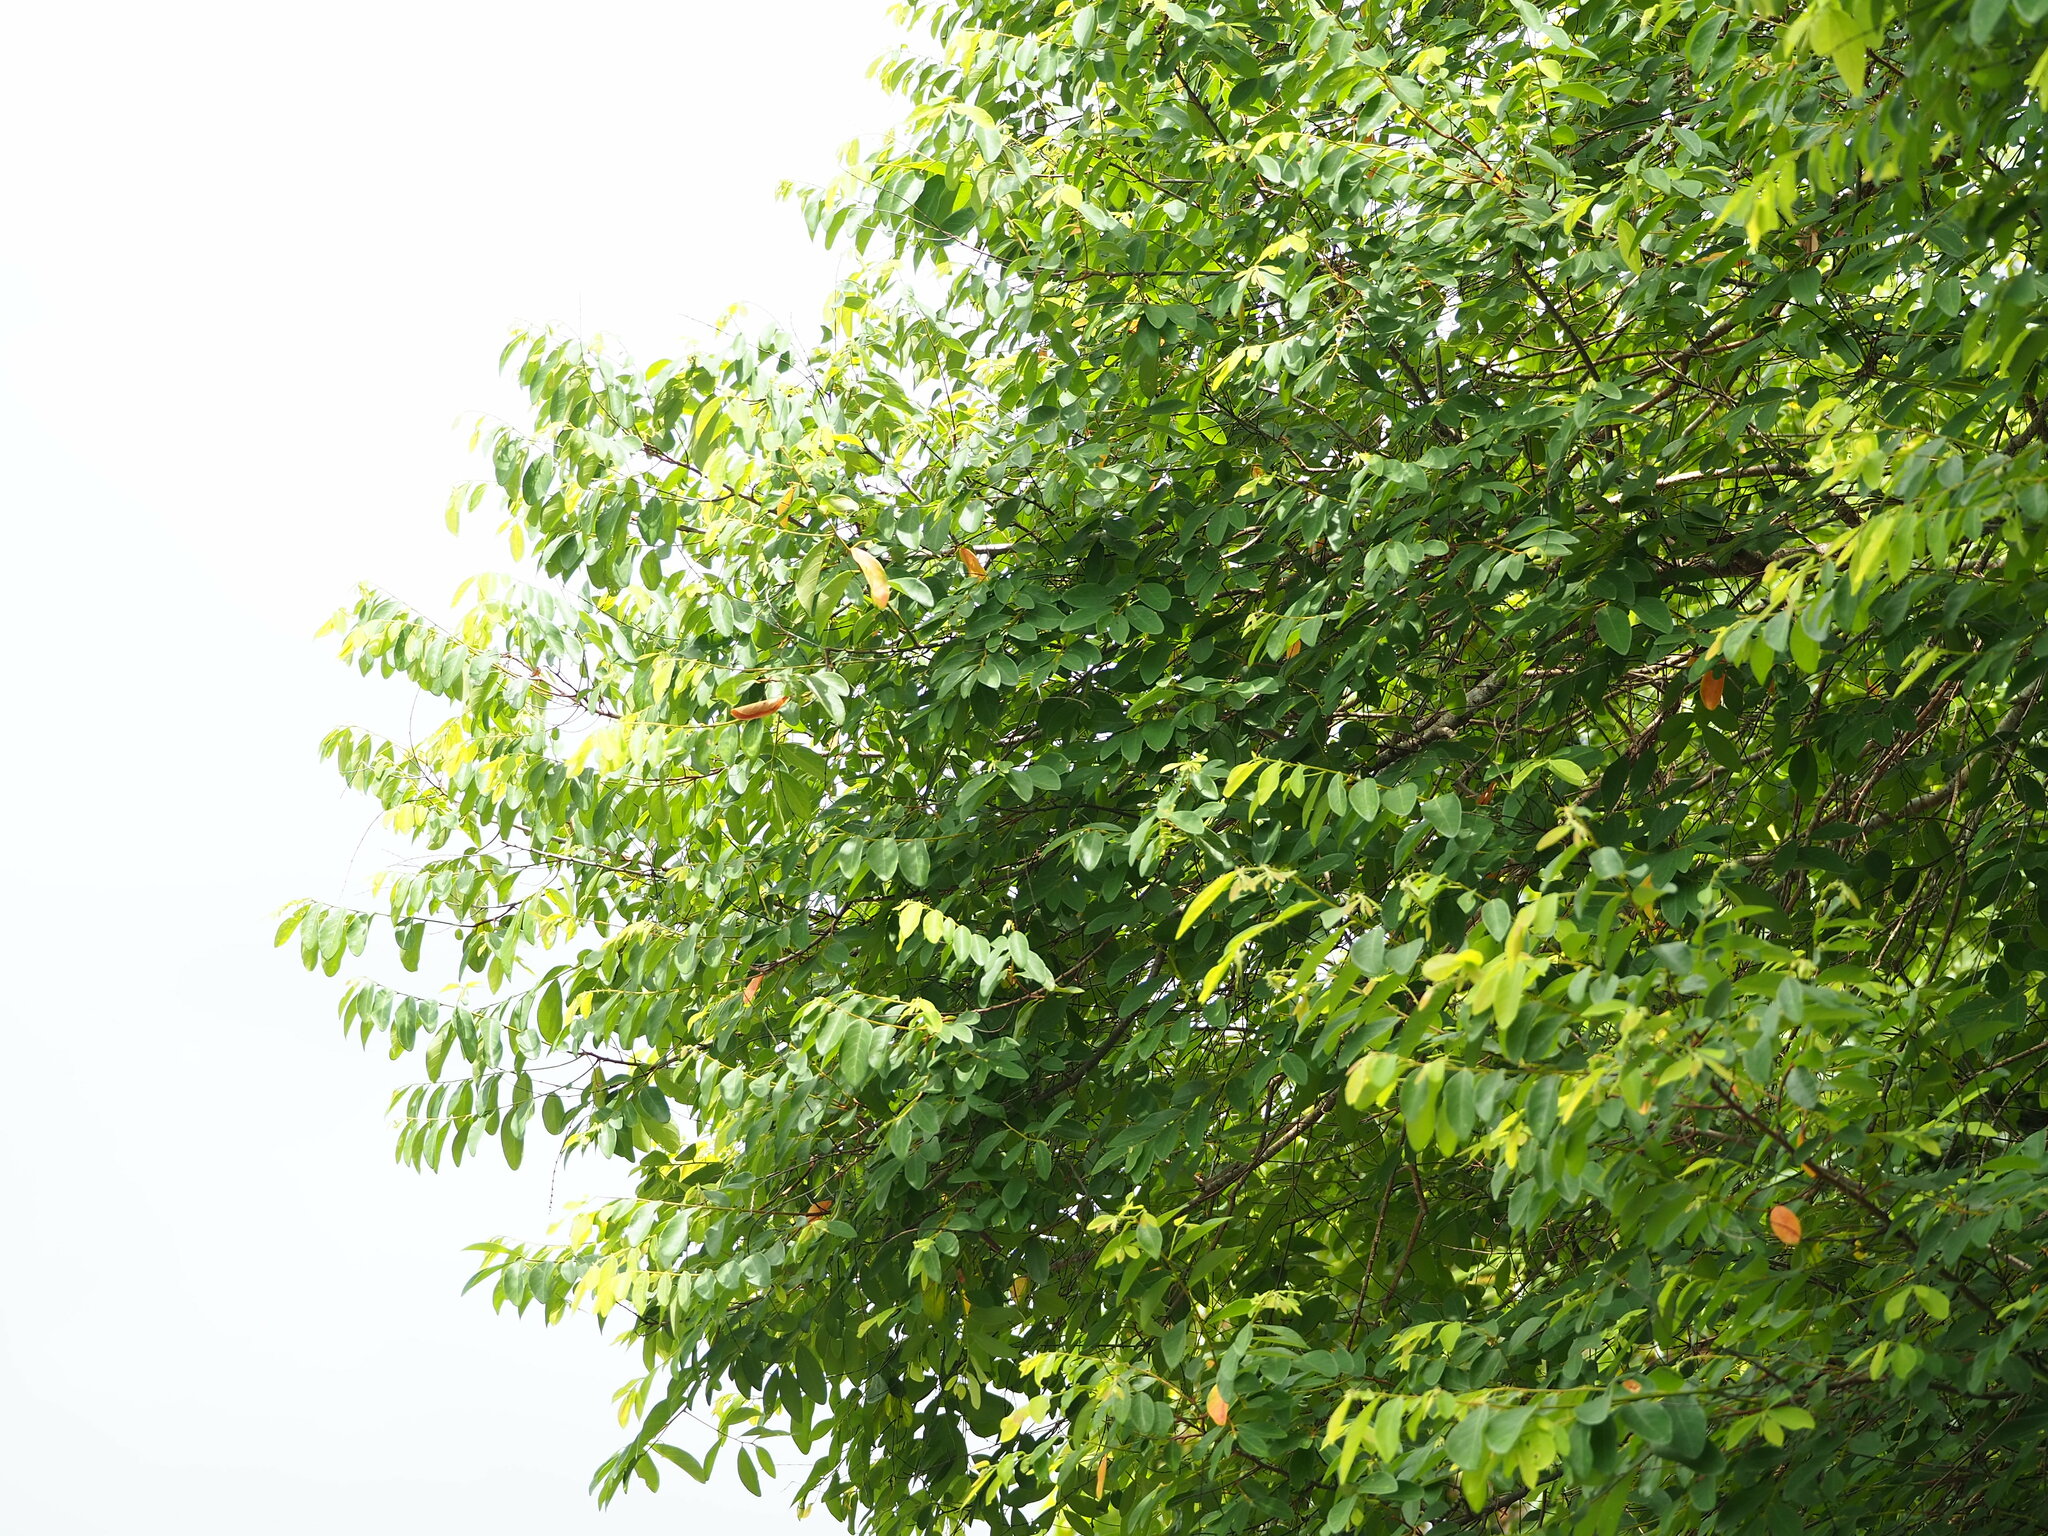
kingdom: Plantae
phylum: Tracheophyta
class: Magnoliopsida
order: Malpighiales
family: Phyllanthaceae
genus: Bridelia
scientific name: Bridelia tomentosa
